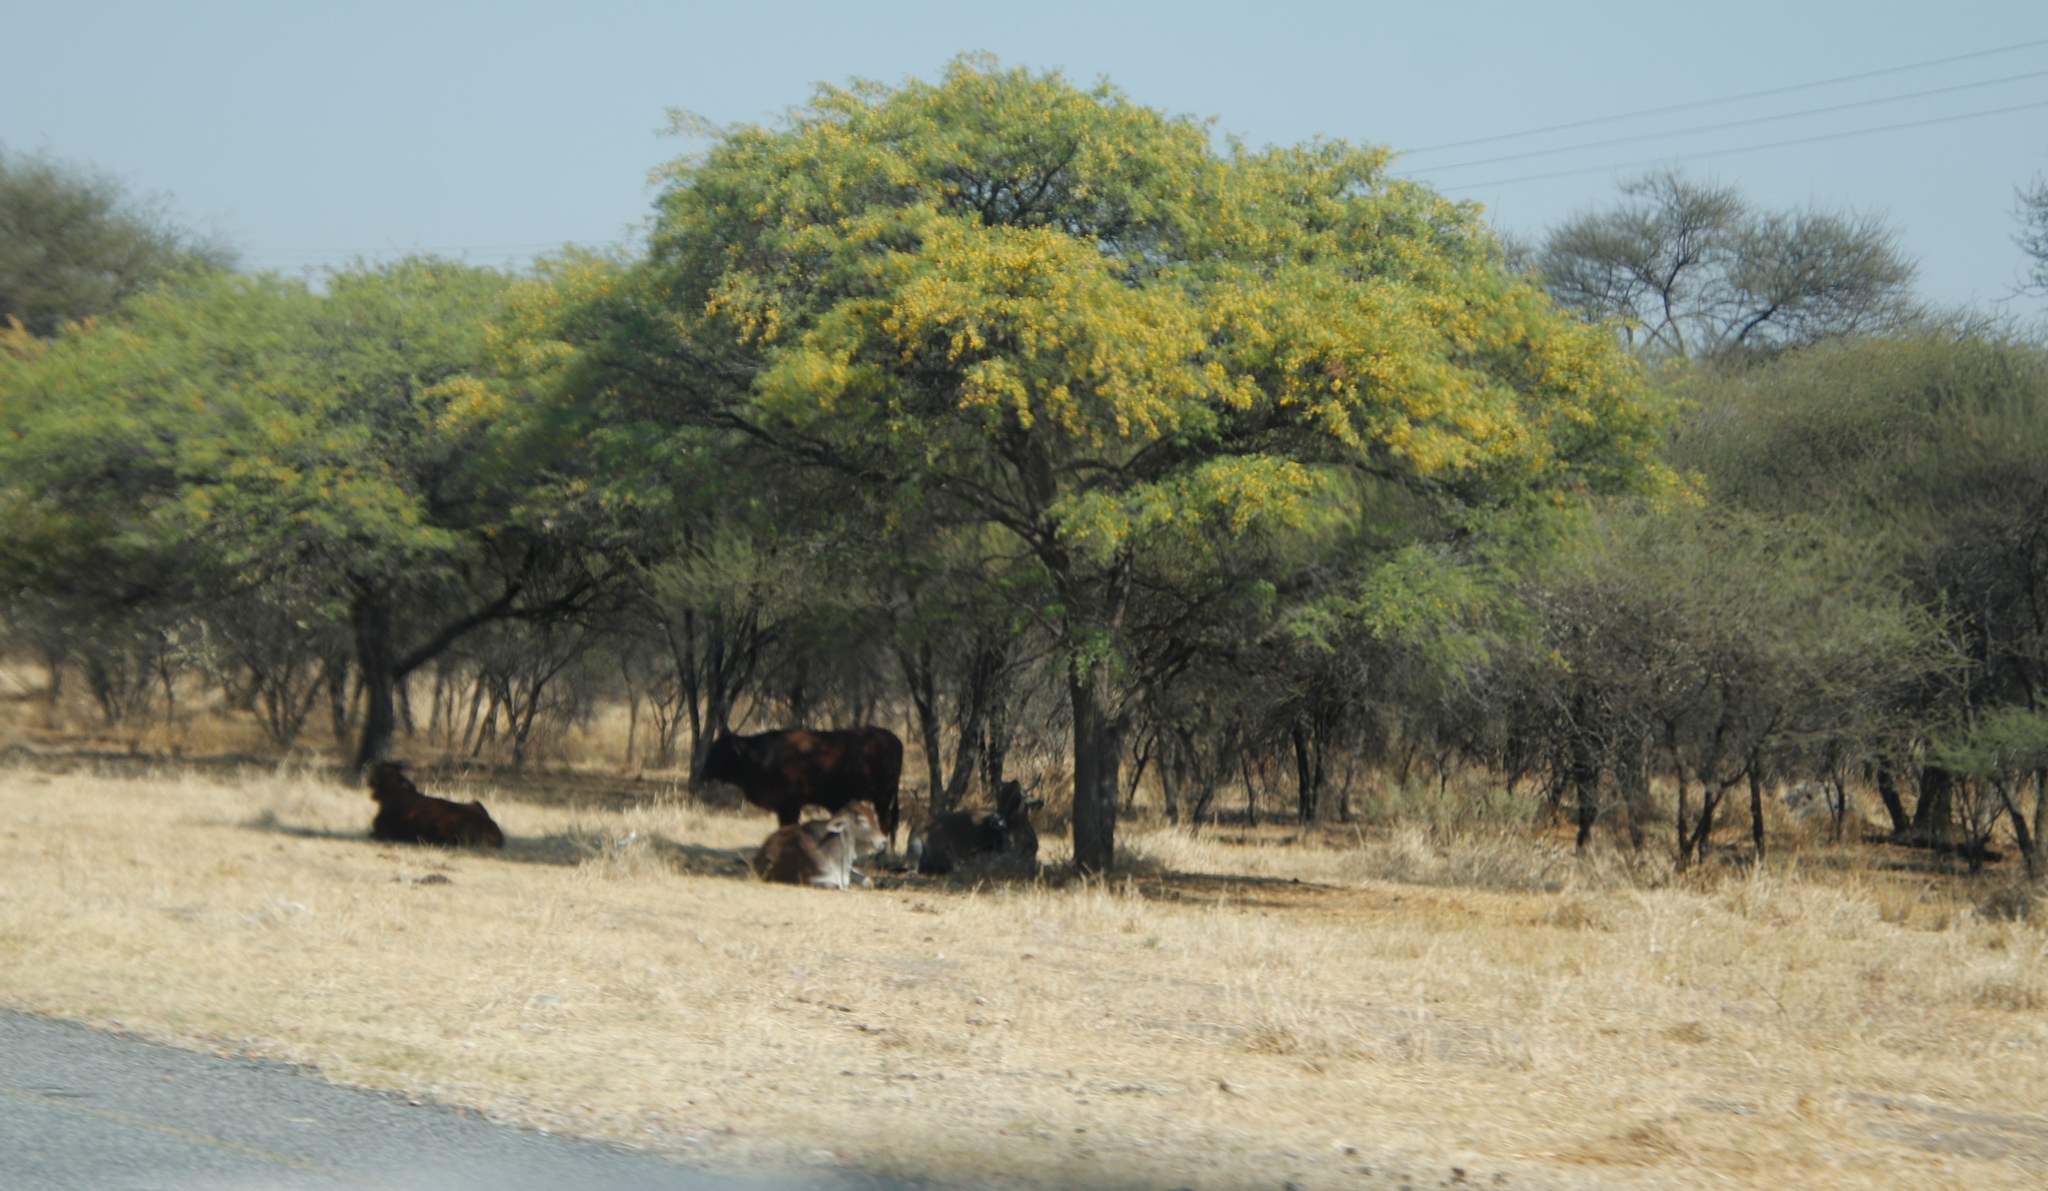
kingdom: Animalia
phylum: Chordata
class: Mammalia
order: Artiodactyla
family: Bovidae
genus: Bos
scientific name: Bos
